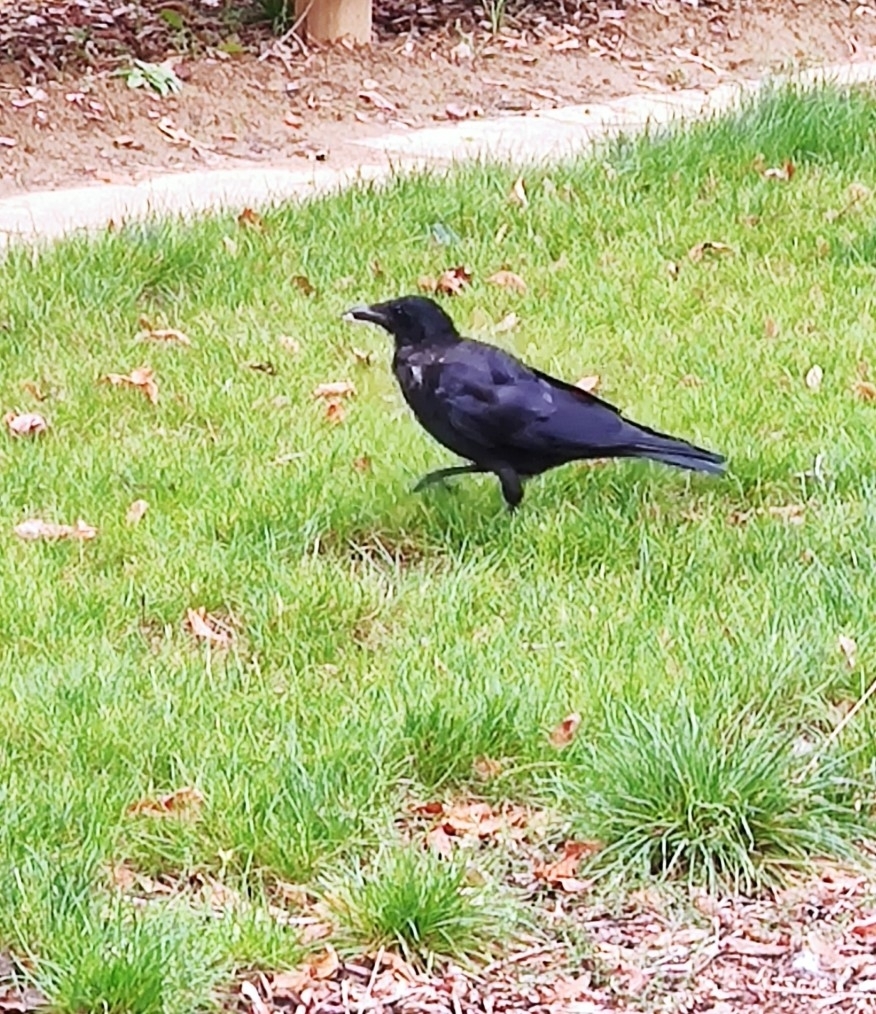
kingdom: Animalia
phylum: Chordata
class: Aves
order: Passeriformes
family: Corvidae
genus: Corvus
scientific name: Corvus corone
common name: Carrion crow
